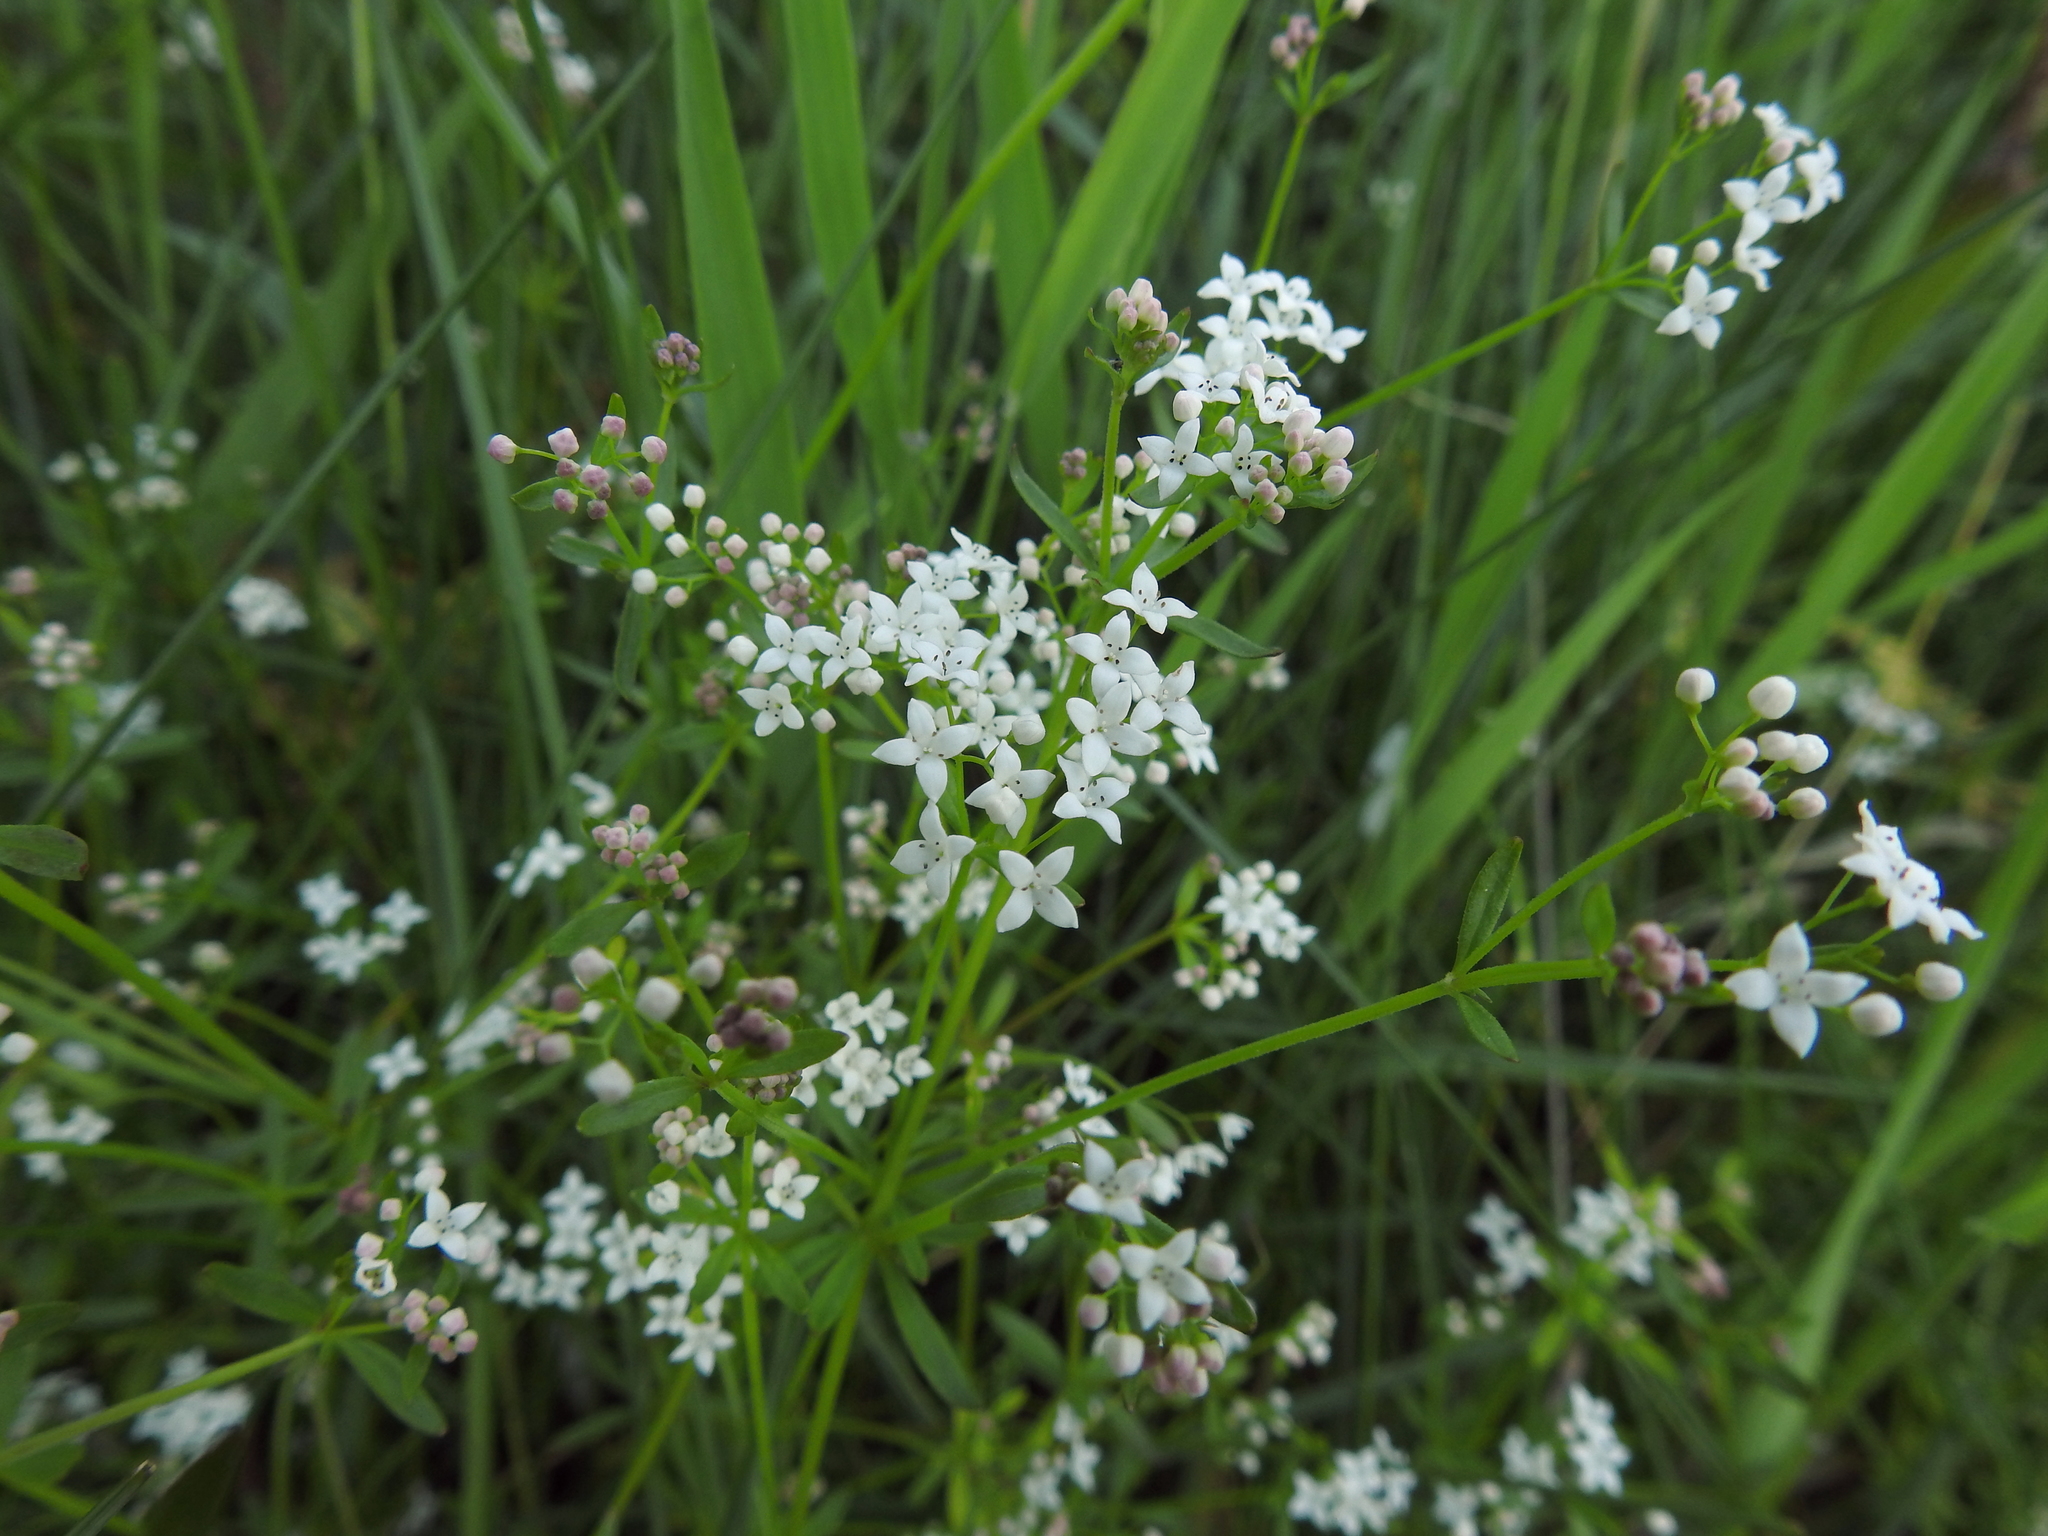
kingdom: Plantae
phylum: Tracheophyta
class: Magnoliopsida
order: Gentianales
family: Rubiaceae
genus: Galium
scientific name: Galium palustre
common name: Common marsh-bedstraw
